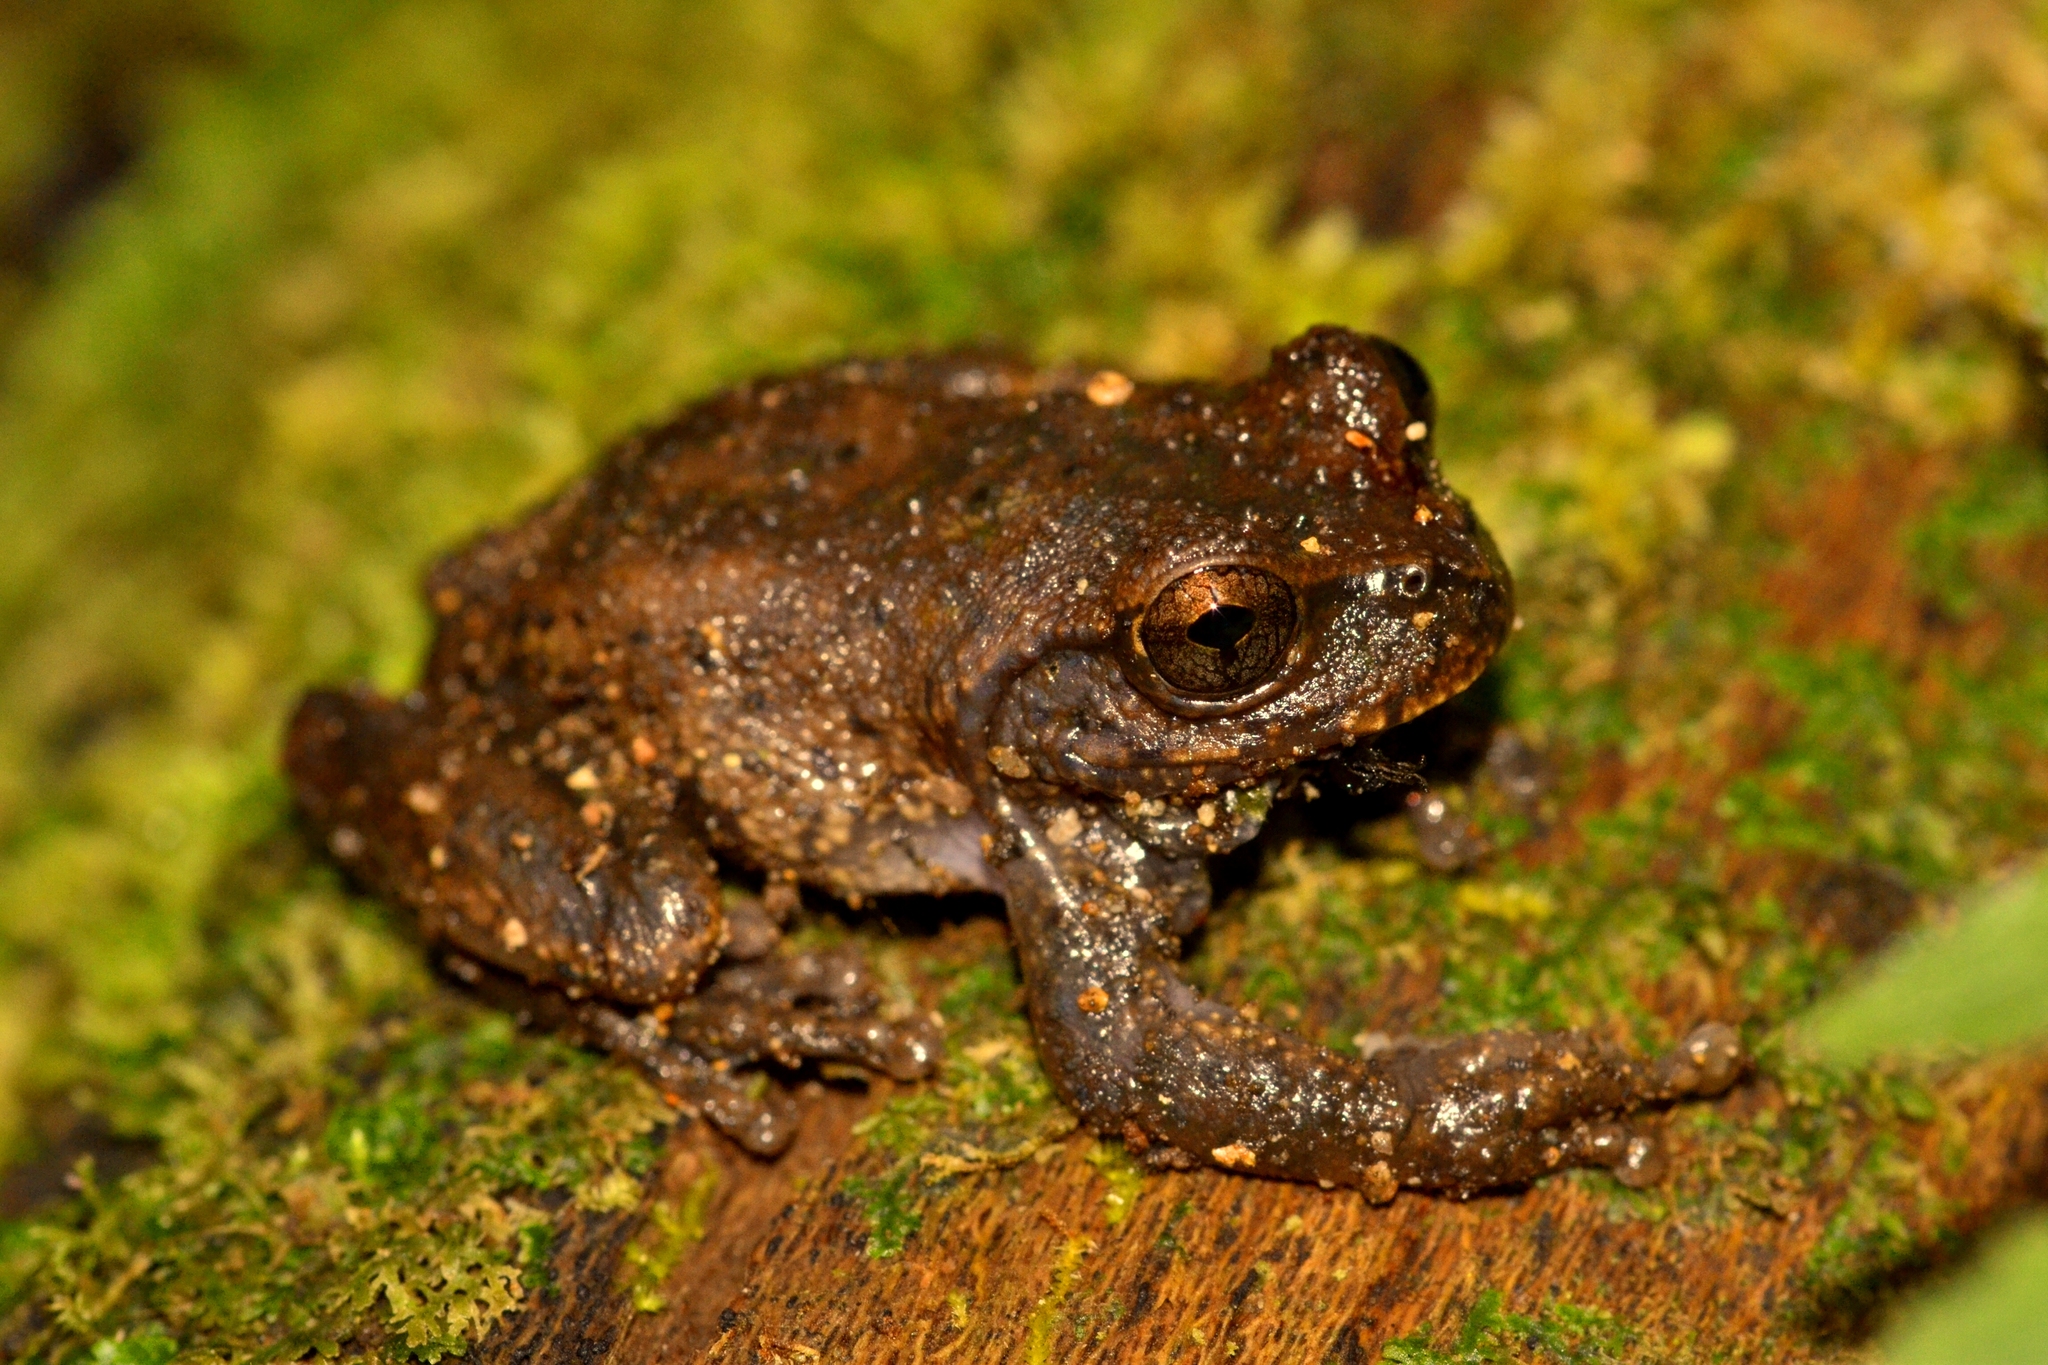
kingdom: Animalia
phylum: Chordata
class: Amphibia
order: Anura
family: Hylidae
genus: Plectrohyla
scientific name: Plectrohyla matudai
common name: Matuda's spikethumb frog
